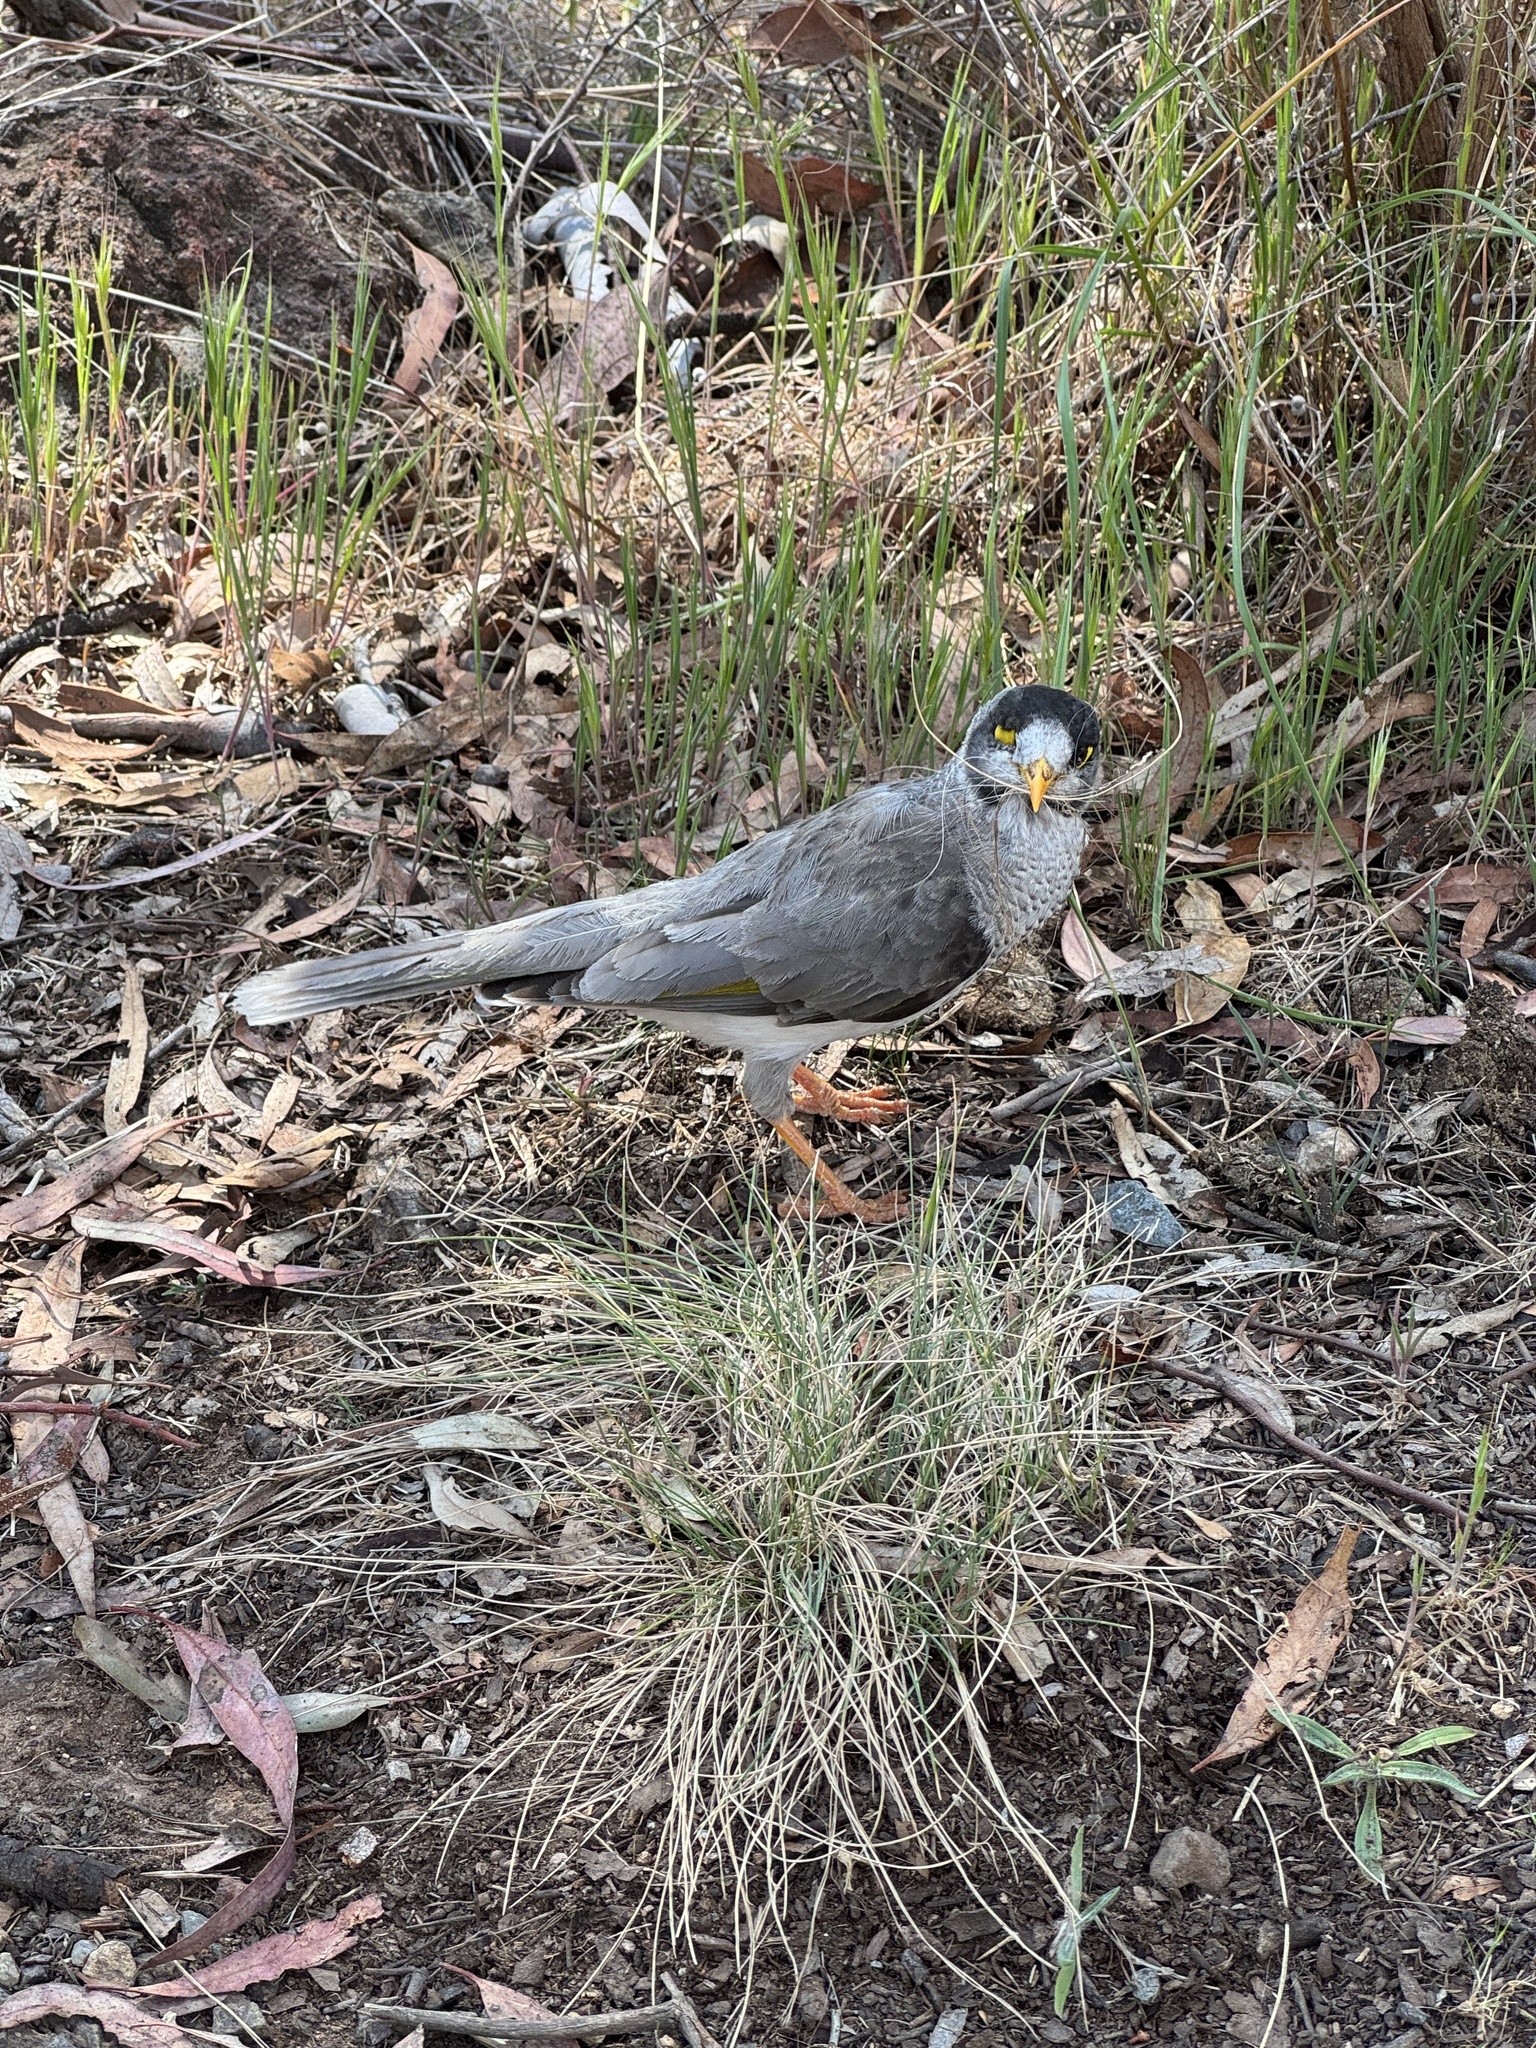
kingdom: Animalia
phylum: Chordata
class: Aves
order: Passeriformes
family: Meliphagidae
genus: Manorina
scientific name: Manorina melanocephala
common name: Noisy miner
